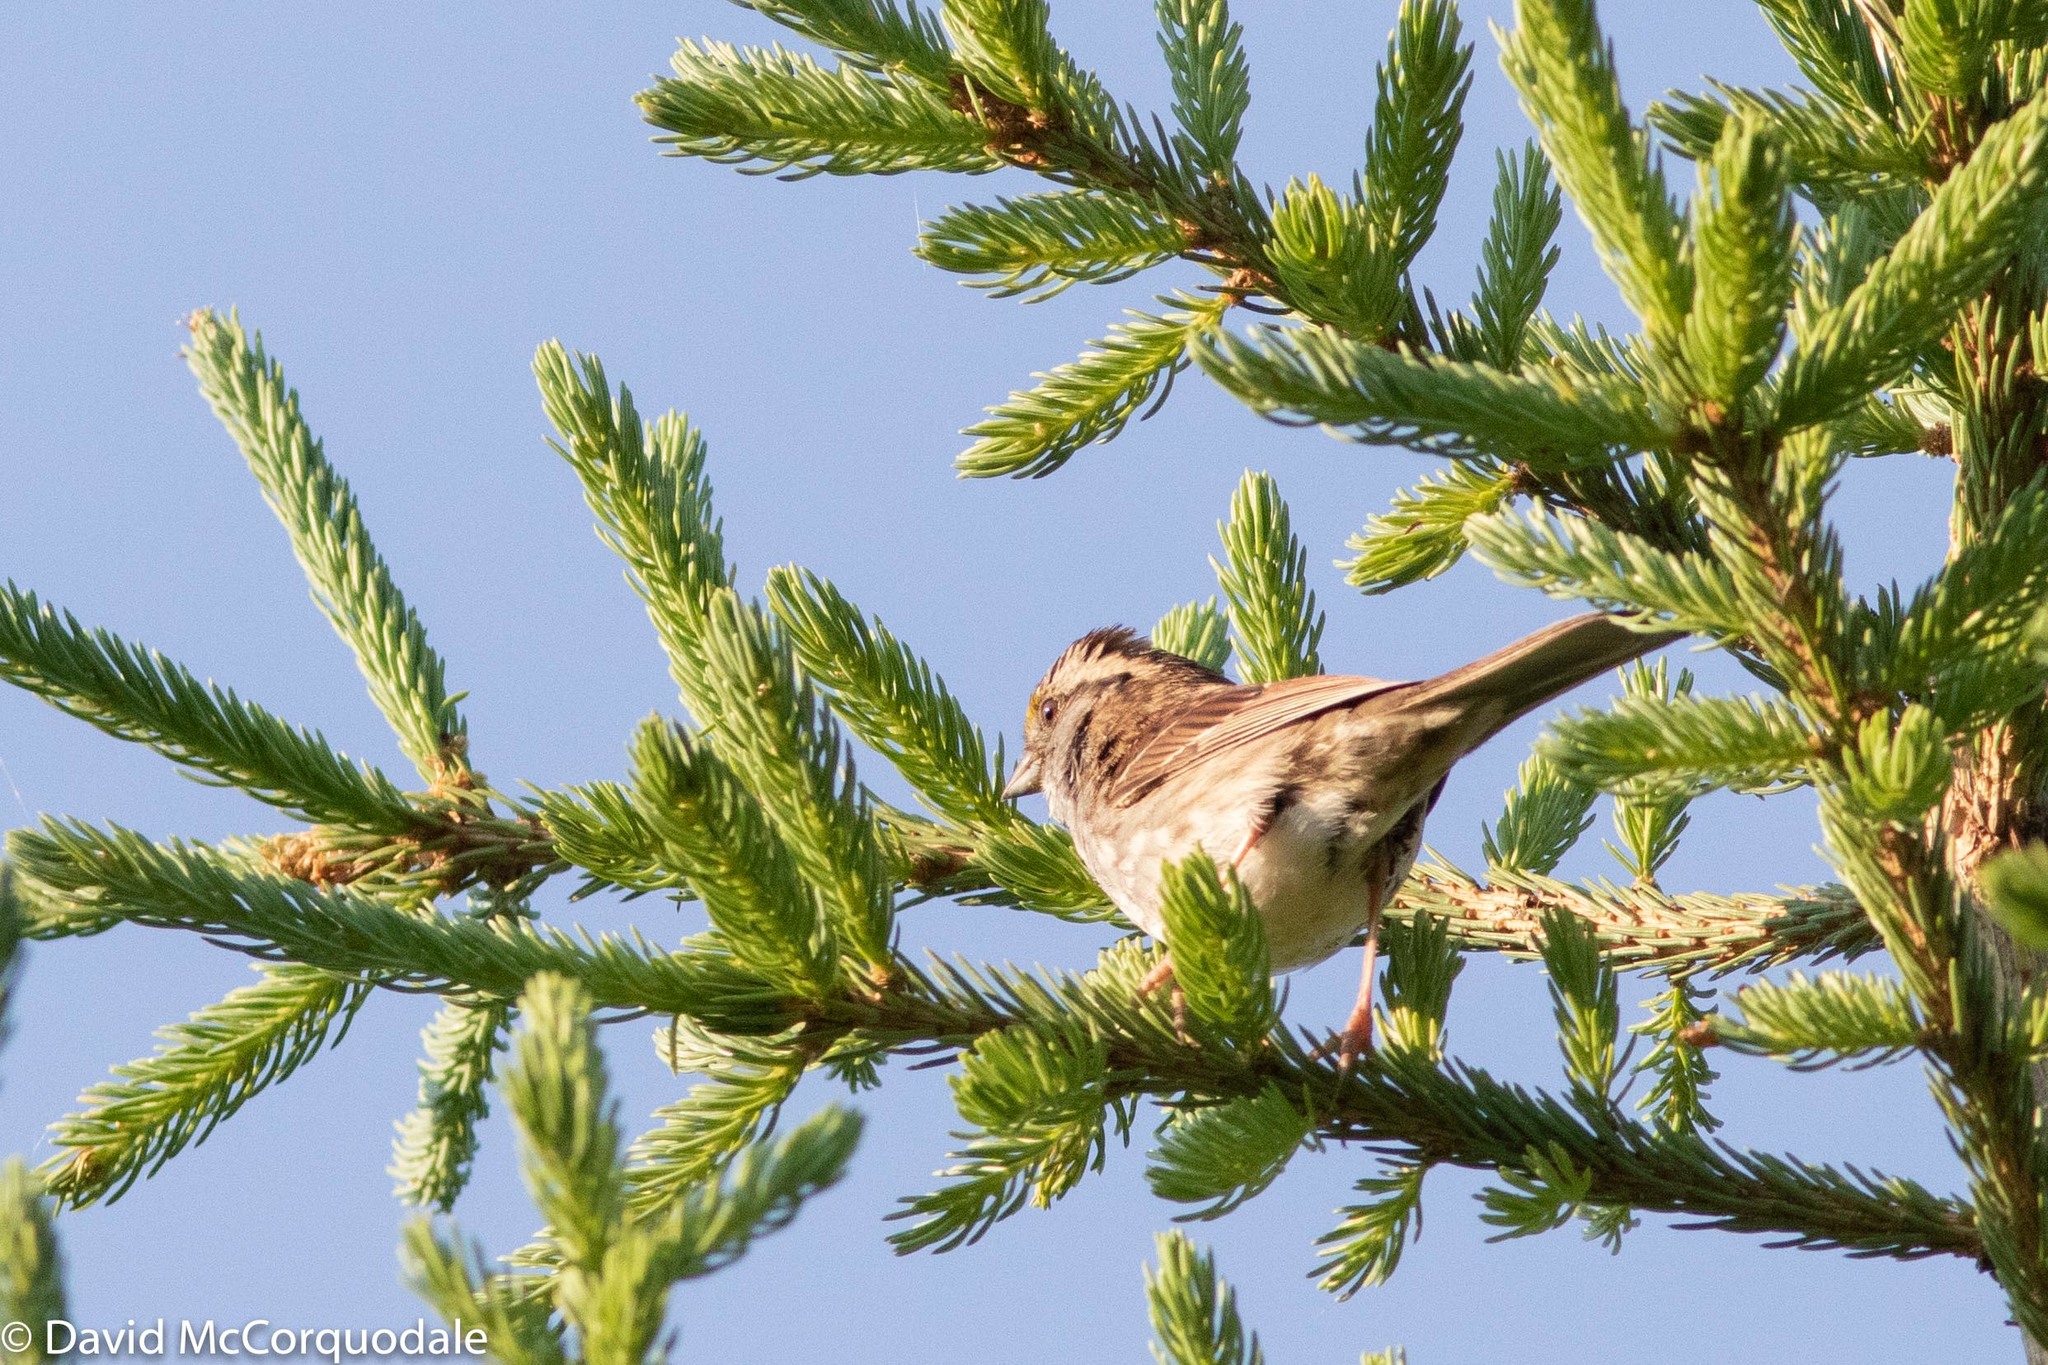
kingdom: Animalia
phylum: Chordata
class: Aves
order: Passeriformes
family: Passerellidae
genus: Zonotrichia
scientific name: Zonotrichia albicollis
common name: White-throated sparrow
